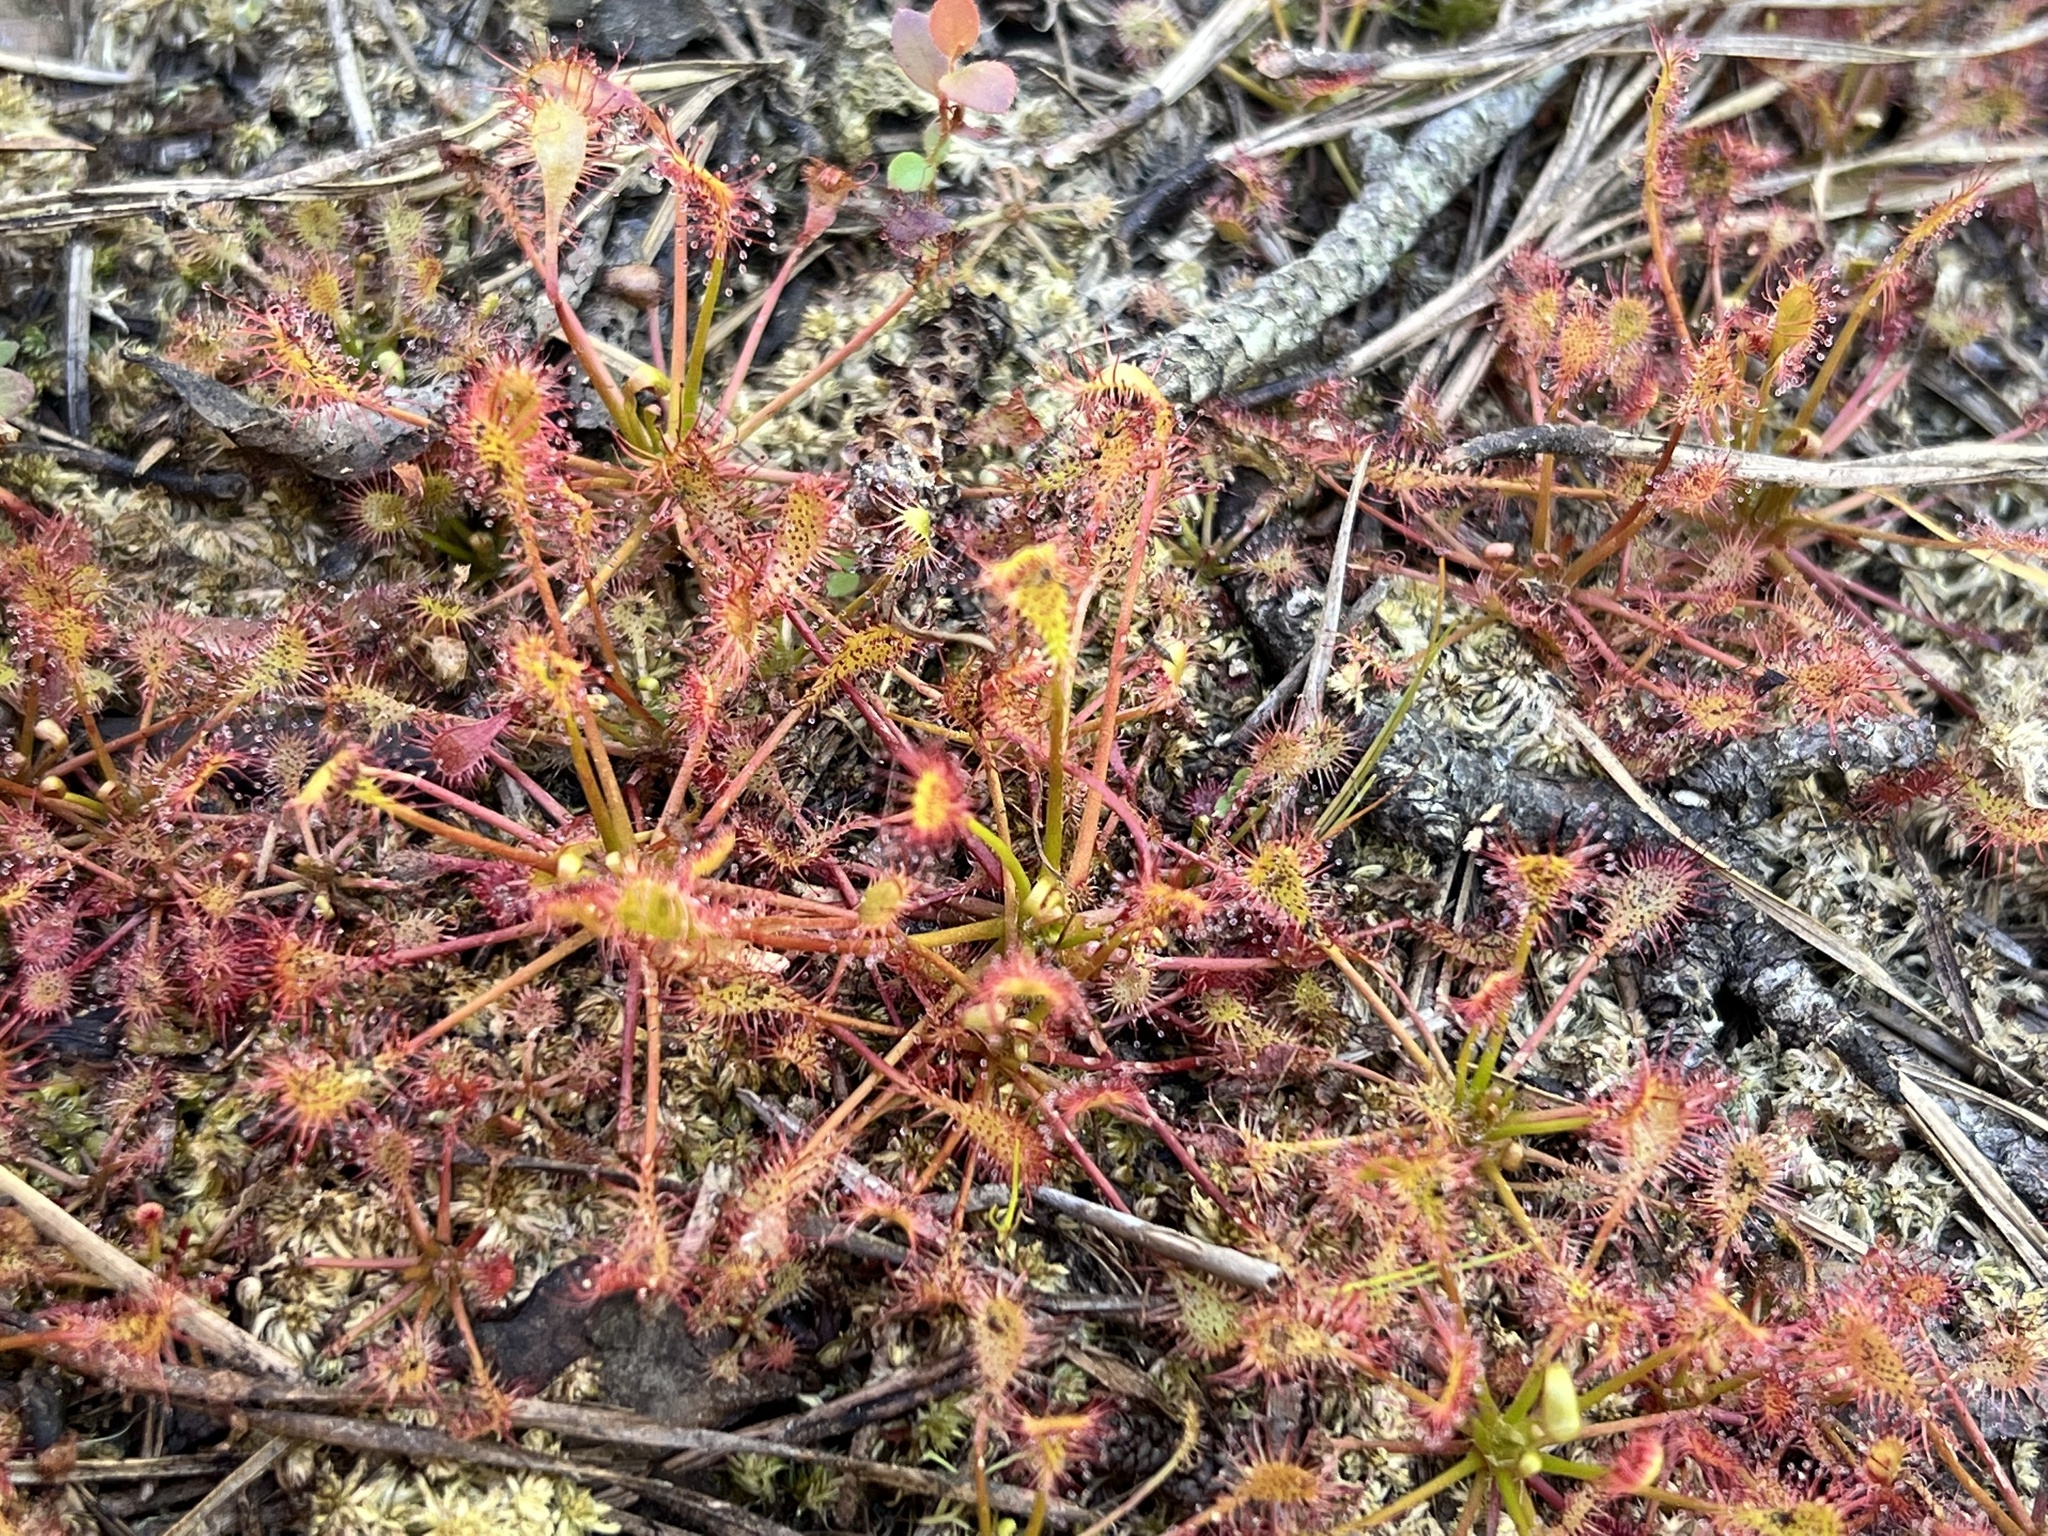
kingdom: Plantae
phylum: Tracheophyta
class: Magnoliopsida
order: Caryophyllales
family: Droseraceae
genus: Drosera
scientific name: Drosera intermedia
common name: Oblong-leaved sundew
